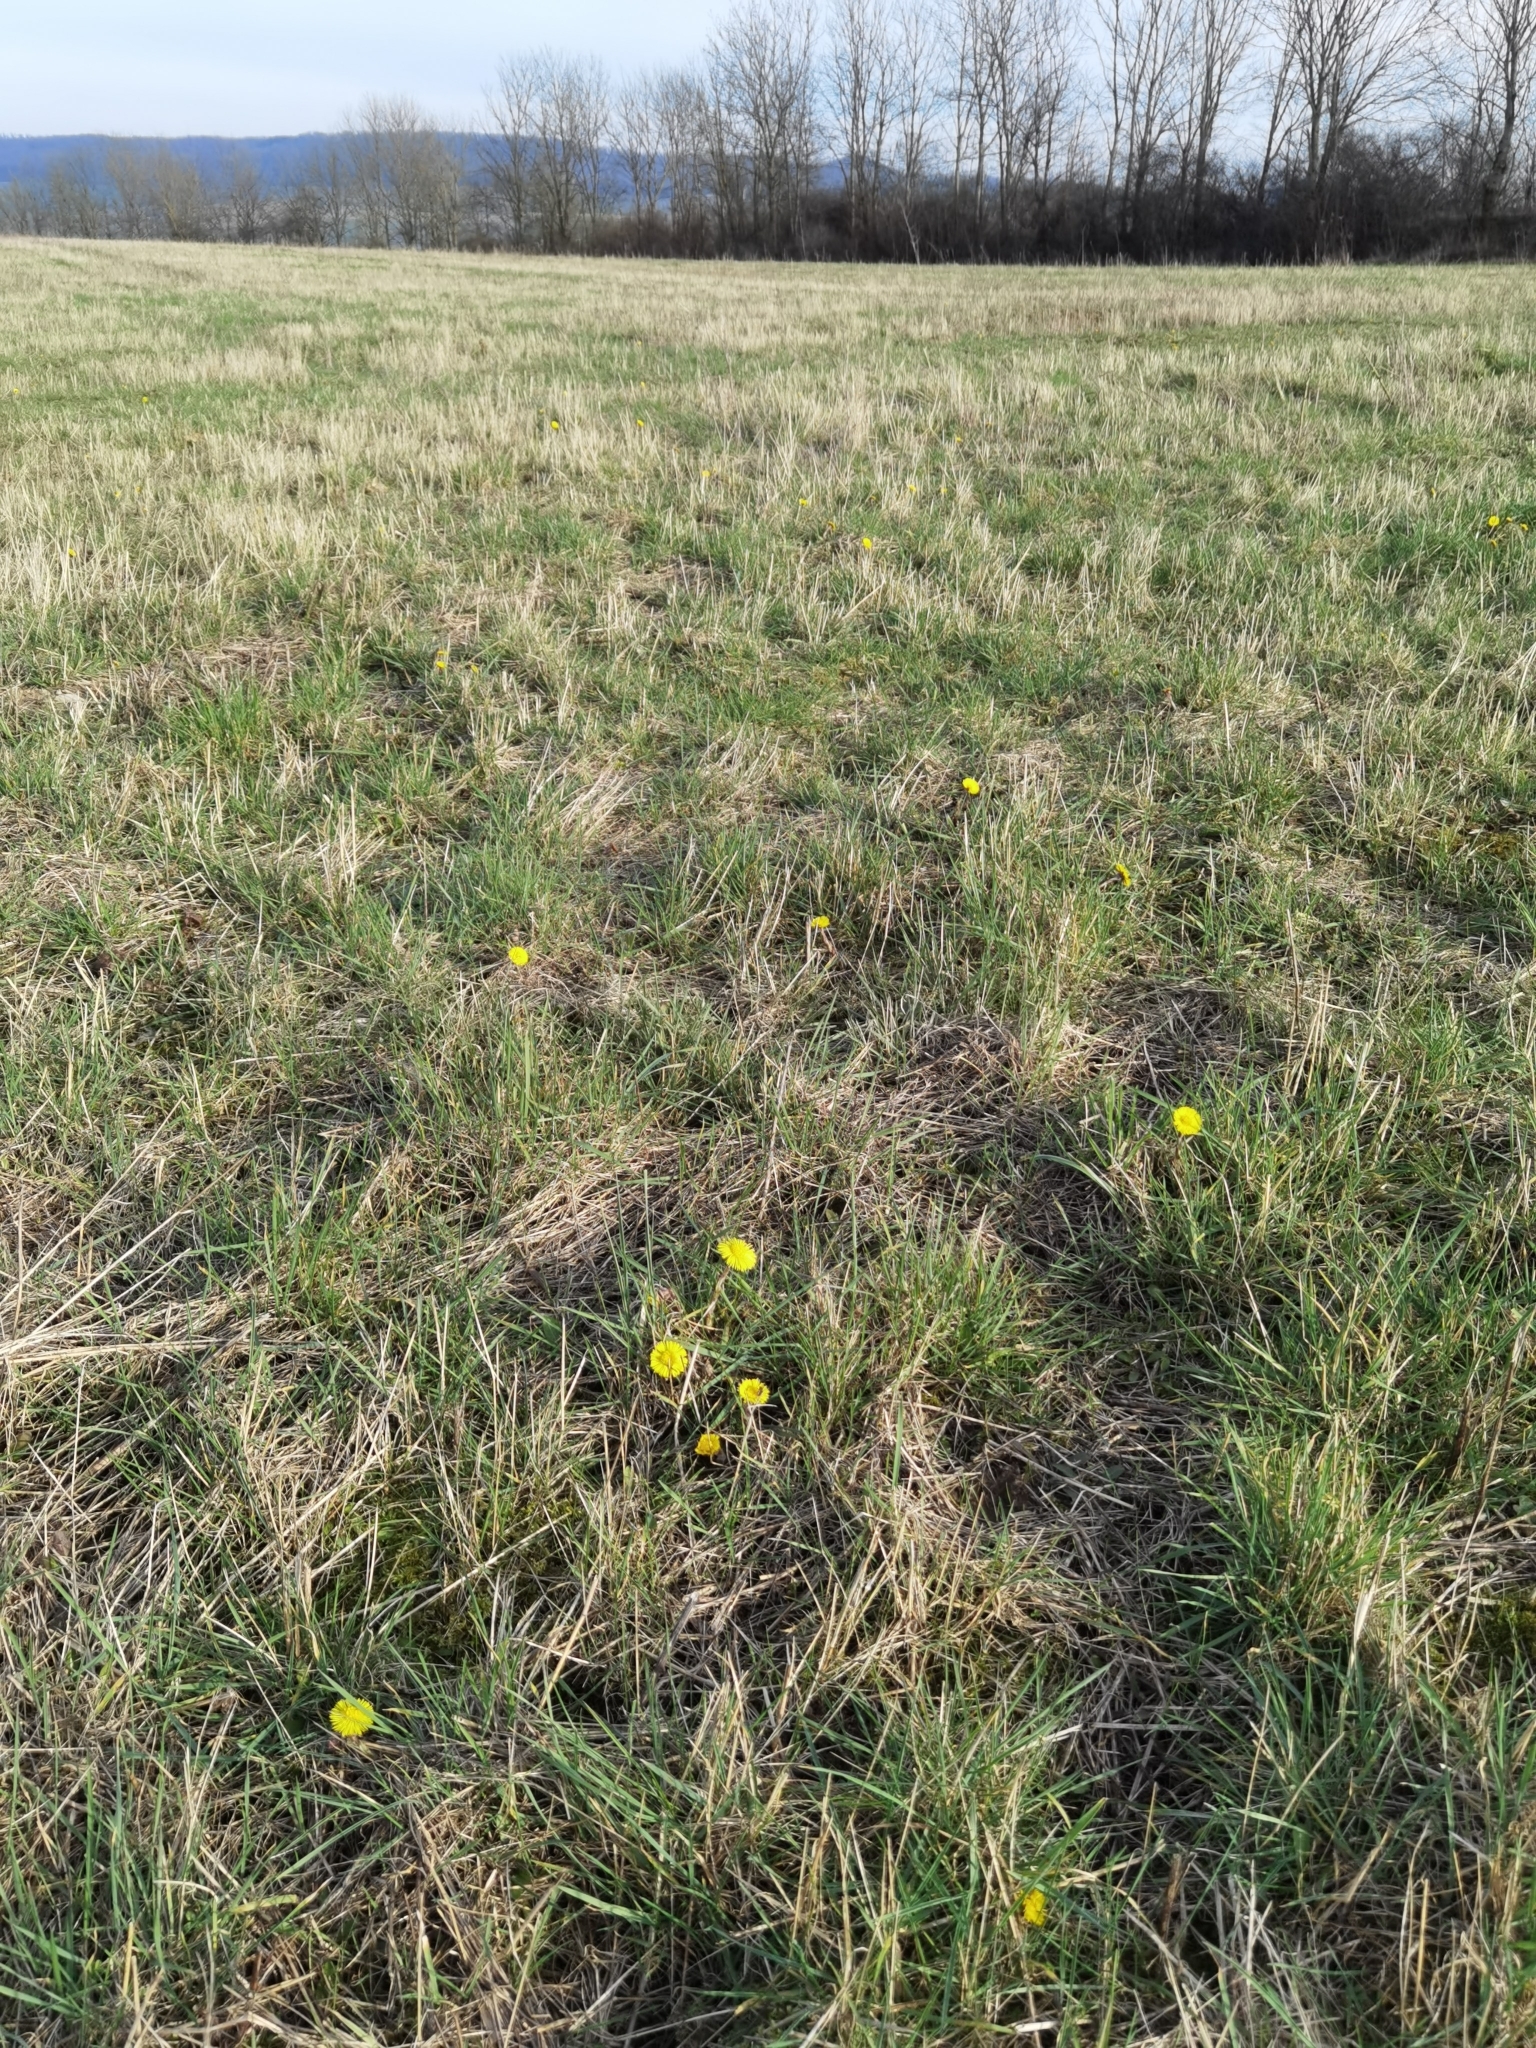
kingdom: Plantae
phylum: Tracheophyta
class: Magnoliopsida
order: Asterales
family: Asteraceae
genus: Tussilago
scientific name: Tussilago farfara
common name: Coltsfoot
